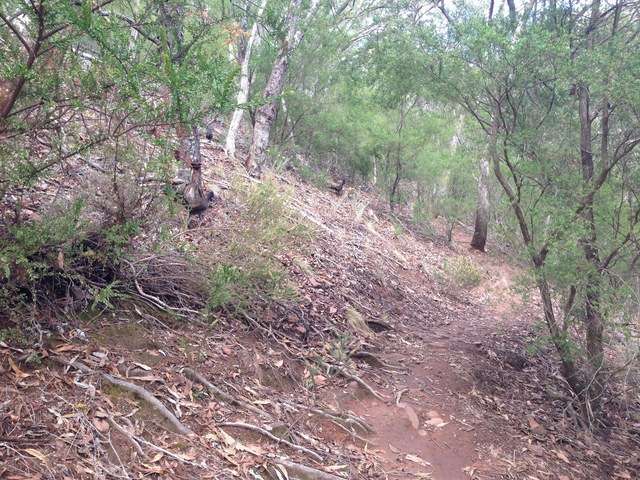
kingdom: Animalia
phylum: Chordata
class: Aves
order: Passeriformes
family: Menuridae
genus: Menura
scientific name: Menura novaehollandiae
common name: Superb lyrebird
